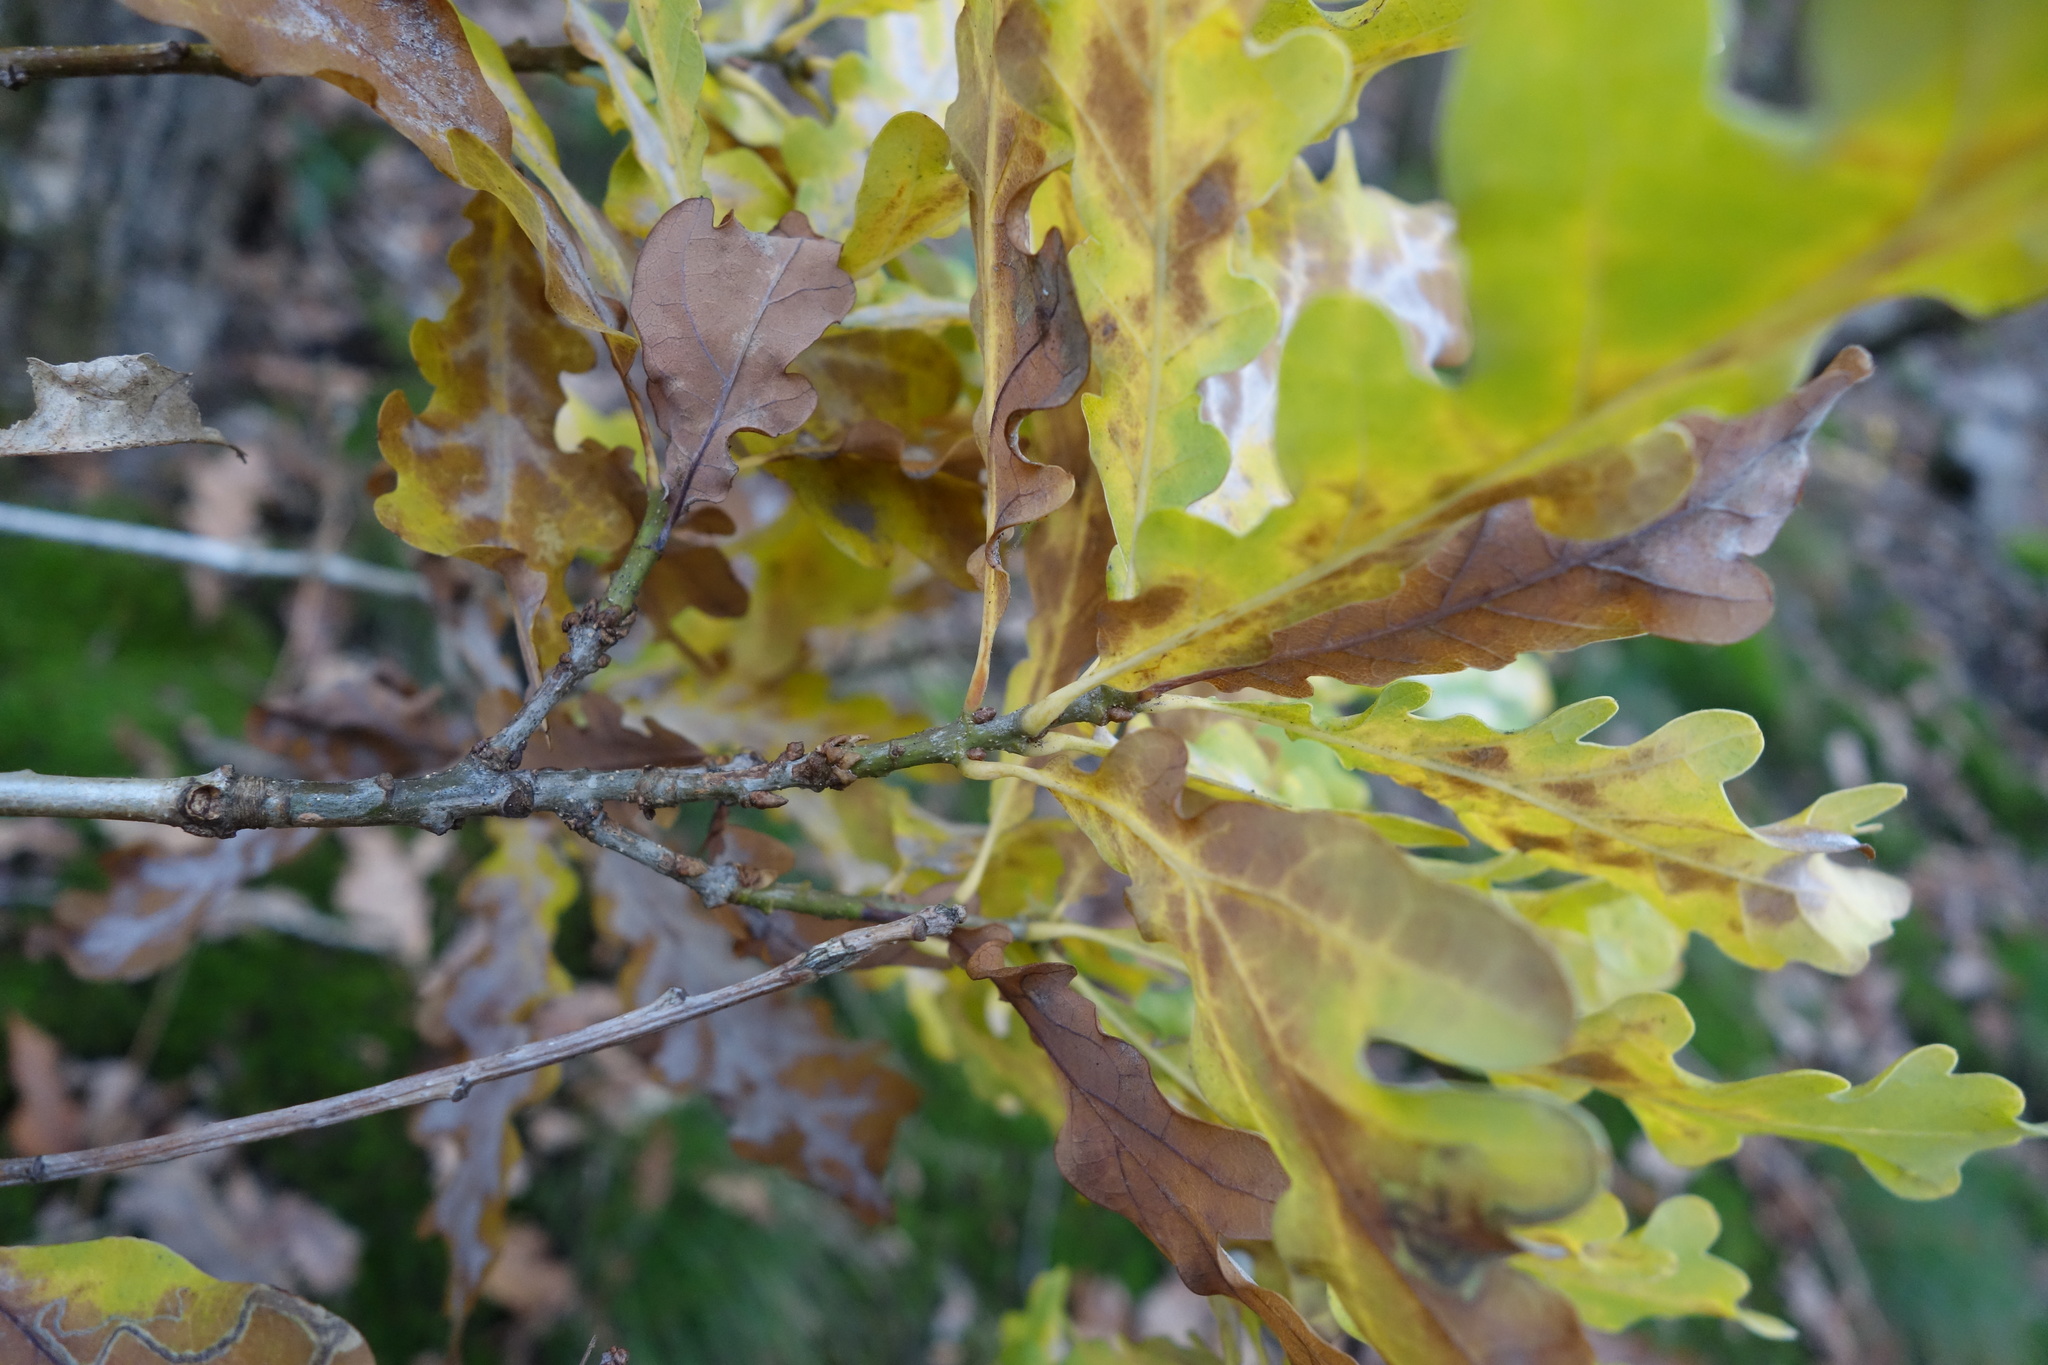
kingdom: Plantae
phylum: Tracheophyta
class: Magnoliopsida
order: Fagales
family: Fagaceae
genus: Quercus
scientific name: Quercus robur
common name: Pedunculate oak
